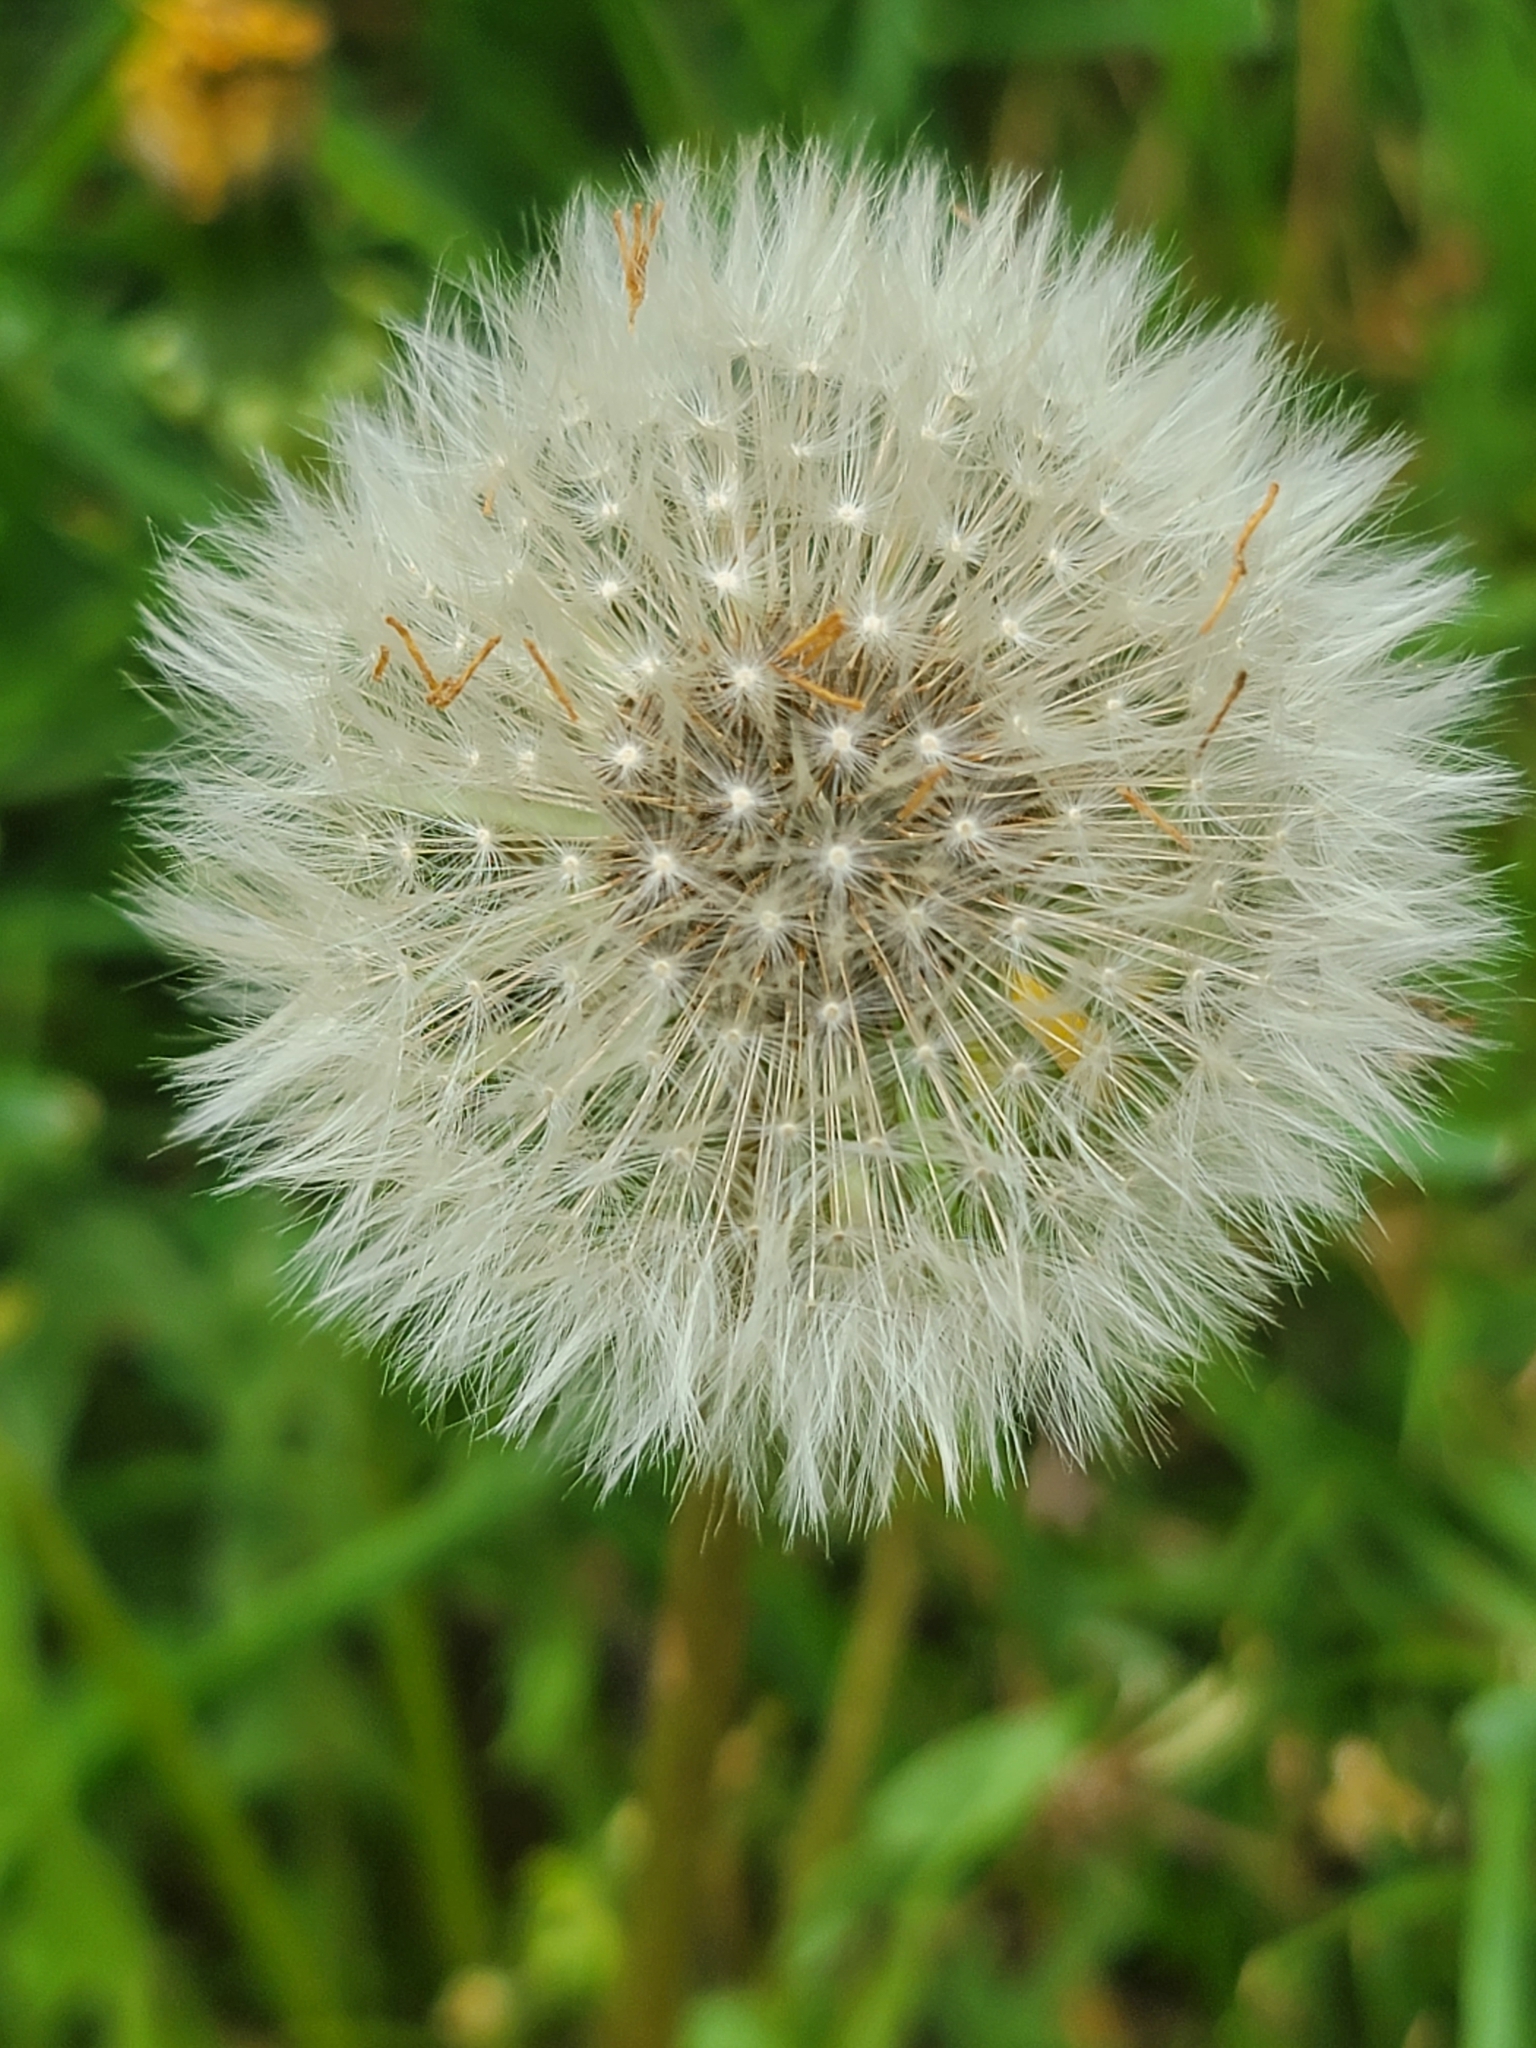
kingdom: Plantae
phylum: Tracheophyta
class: Magnoliopsida
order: Asterales
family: Asteraceae
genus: Taraxacum
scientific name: Taraxacum officinale
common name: Common dandelion
